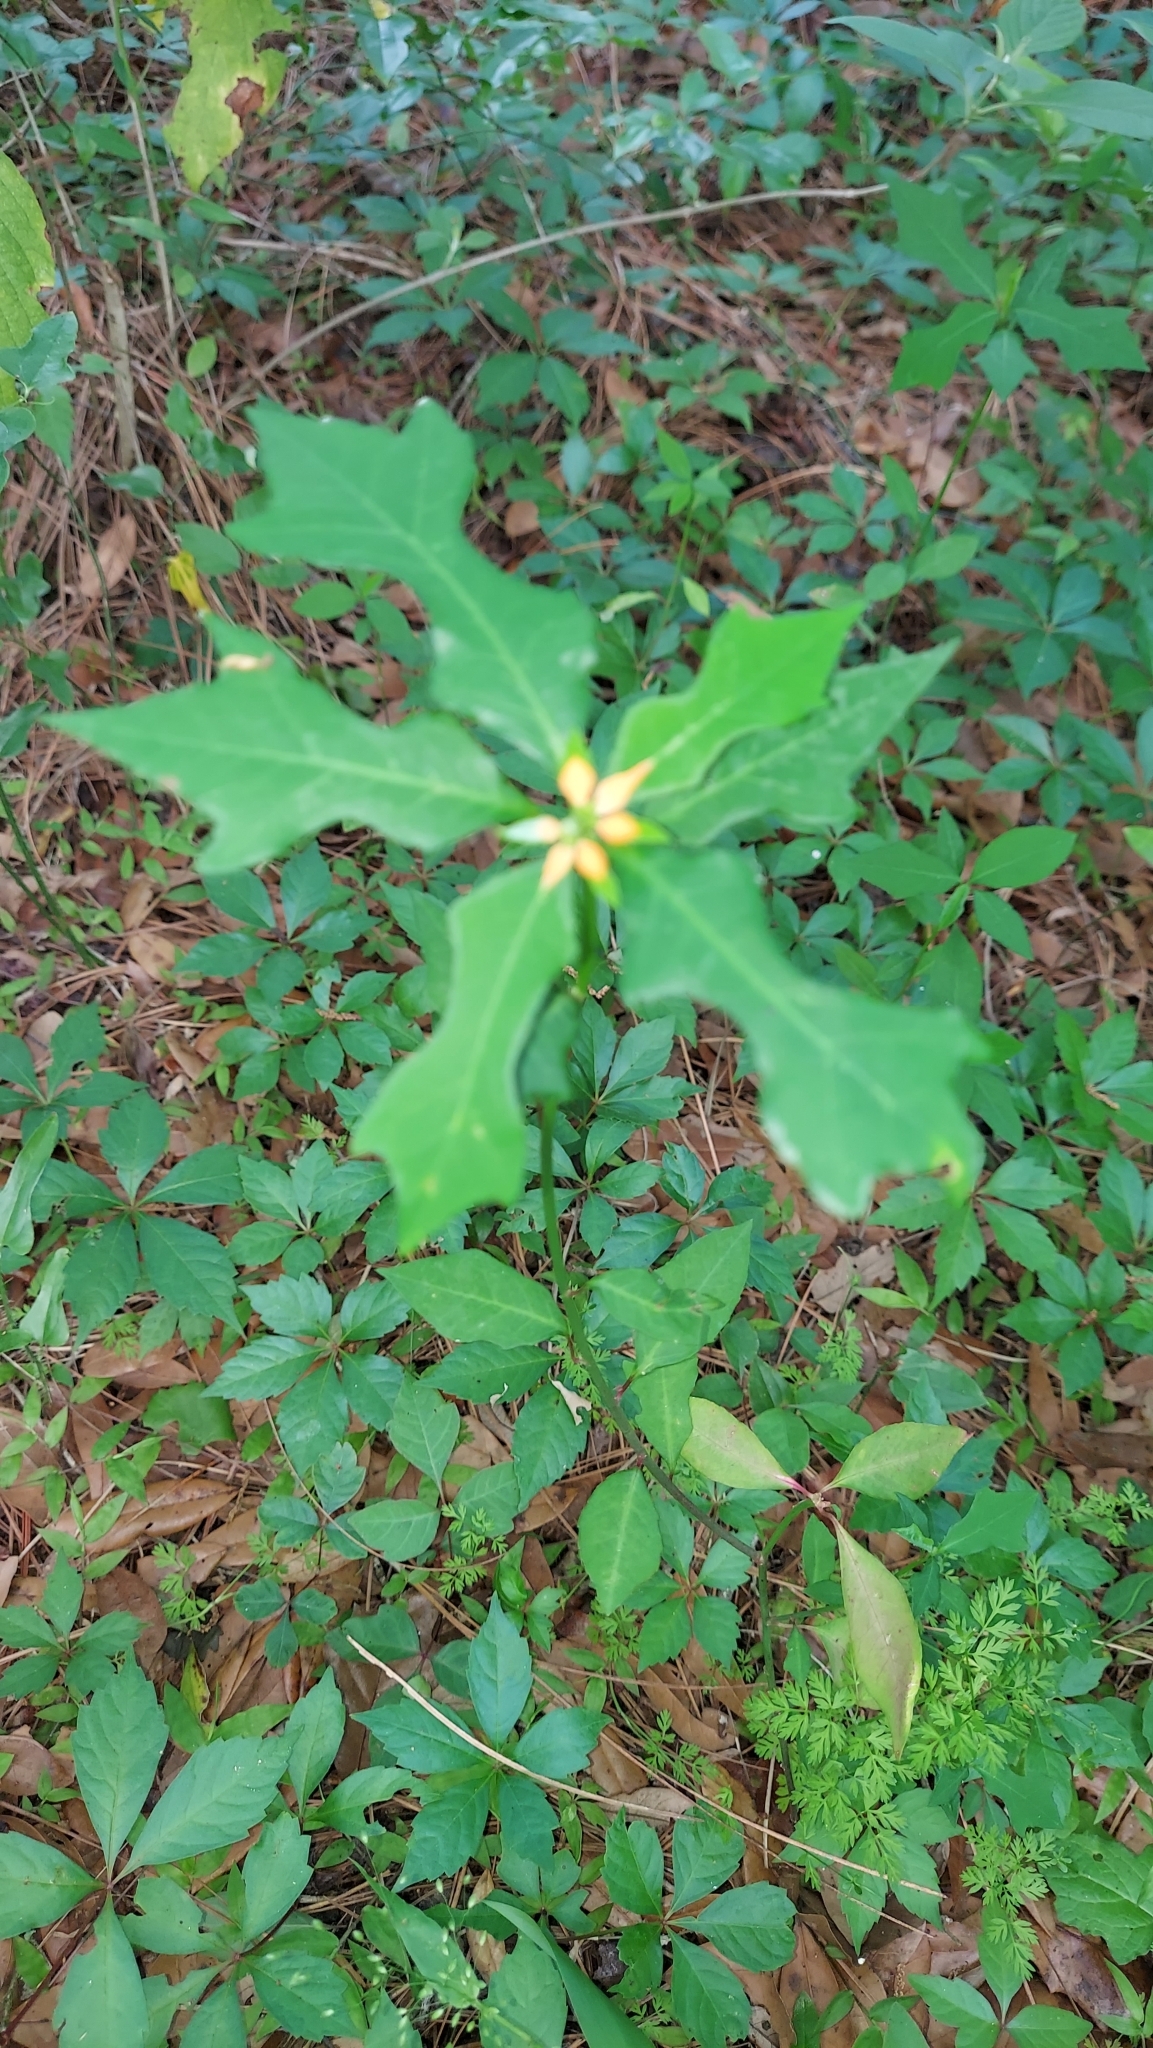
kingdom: Plantae
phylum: Tracheophyta
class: Magnoliopsida
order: Malpighiales
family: Euphorbiaceae
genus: Euphorbia
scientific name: Euphorbia heterophylla
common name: Mexican fireplant
